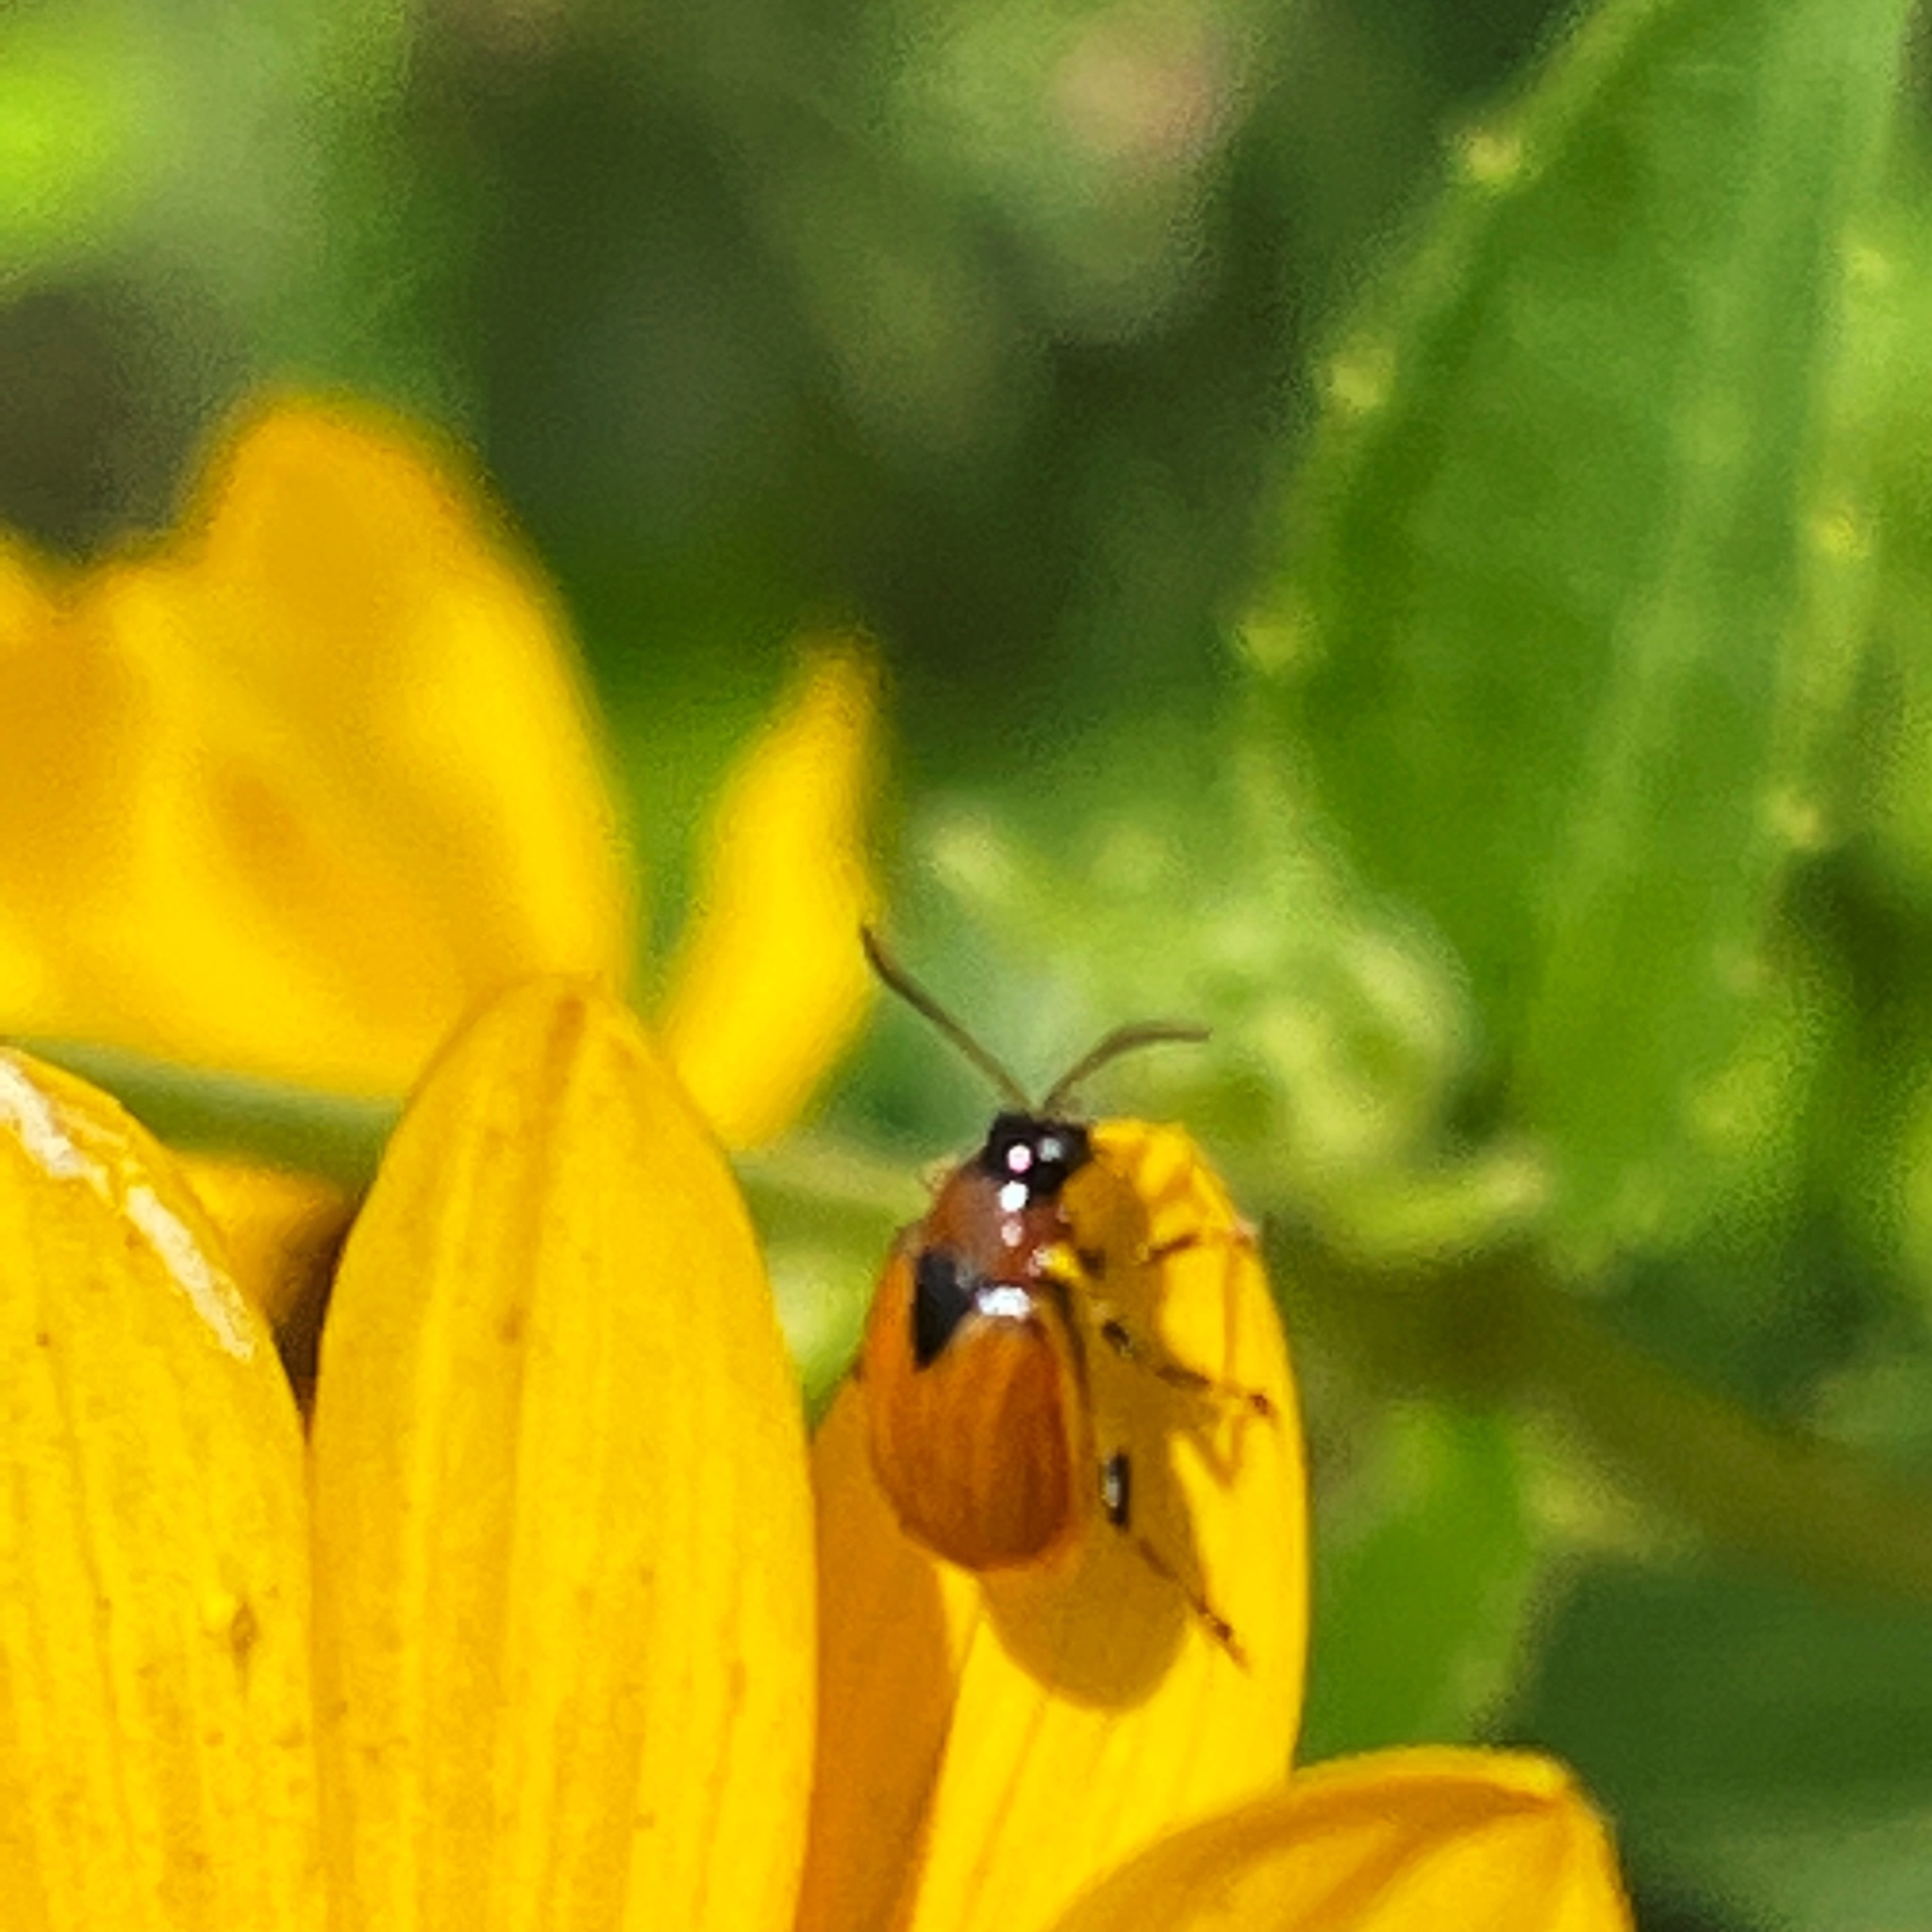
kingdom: Animalia
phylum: Arthropoda
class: Insecta
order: Coleoptera
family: Chrysomelidae
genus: Cerotoma
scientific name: Cerotoma trifurcata
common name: Bean leaf beetle
